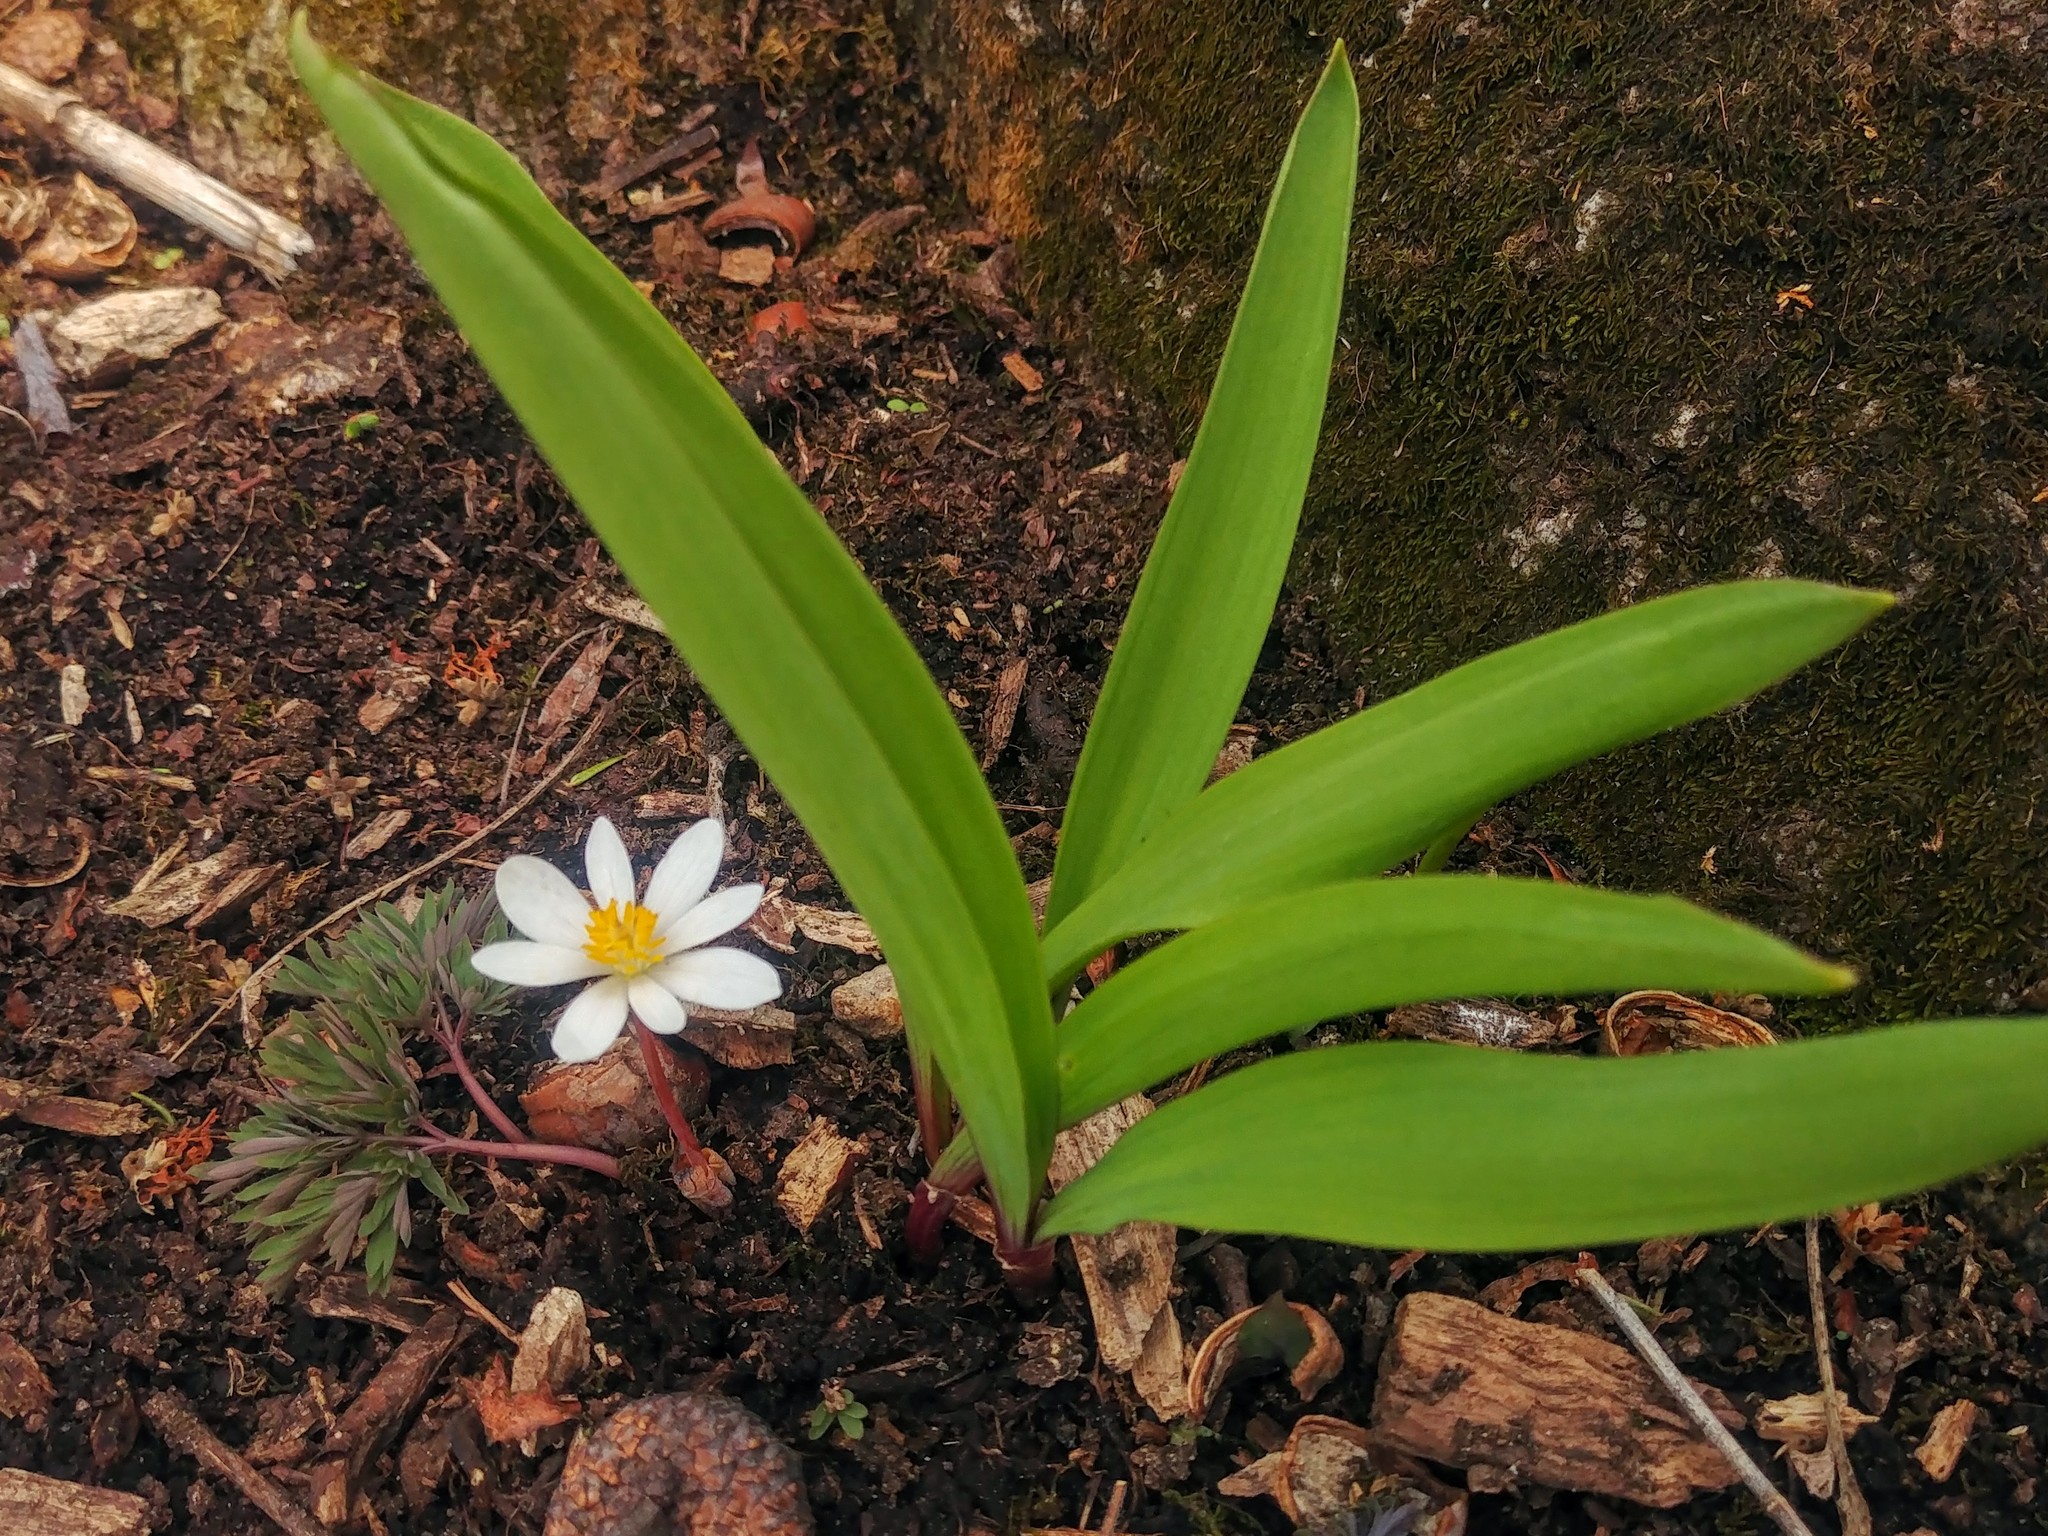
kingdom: Plantae
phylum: Tracheophyta
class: Magnoliopsida
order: Ranunculales
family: Papaveraceae
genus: Sanguinaria
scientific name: Sanguinaria canadensis
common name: Bloodroot
